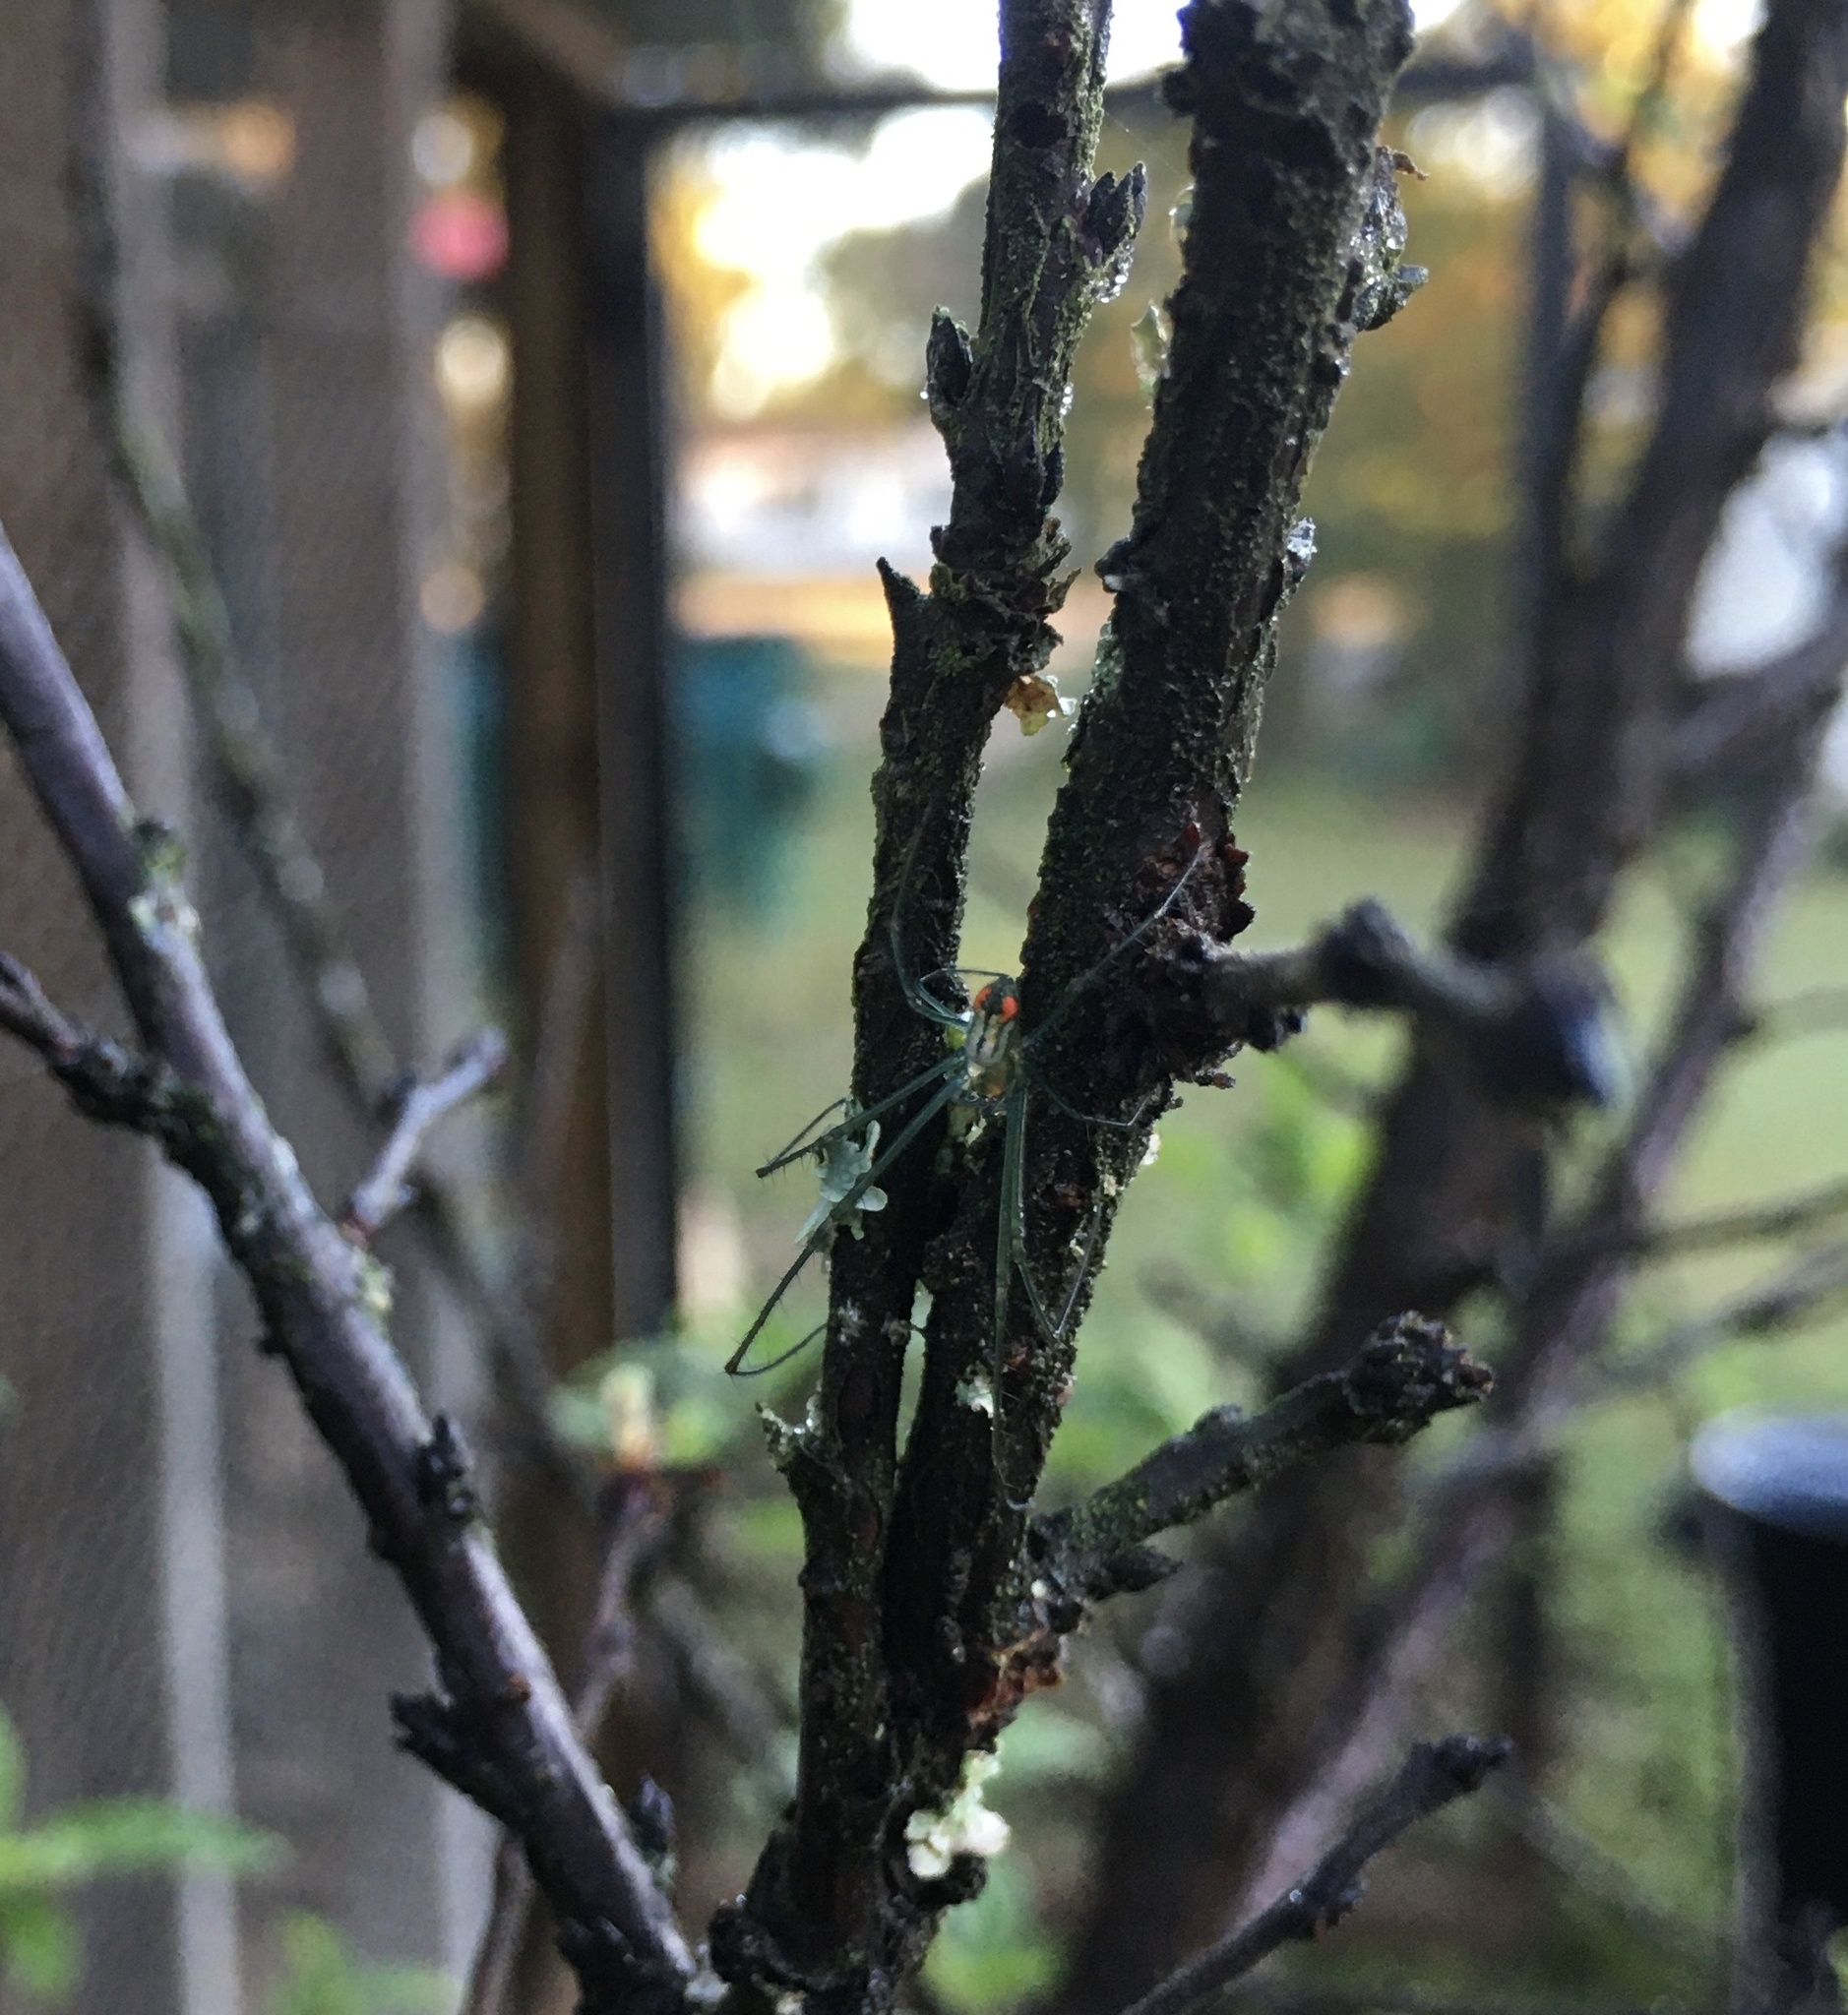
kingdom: Animalia
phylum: Arthropoda
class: Arachnida
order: Araneae
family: Tetragnathidae
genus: Leucauge
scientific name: Leucauge argyrobapta
